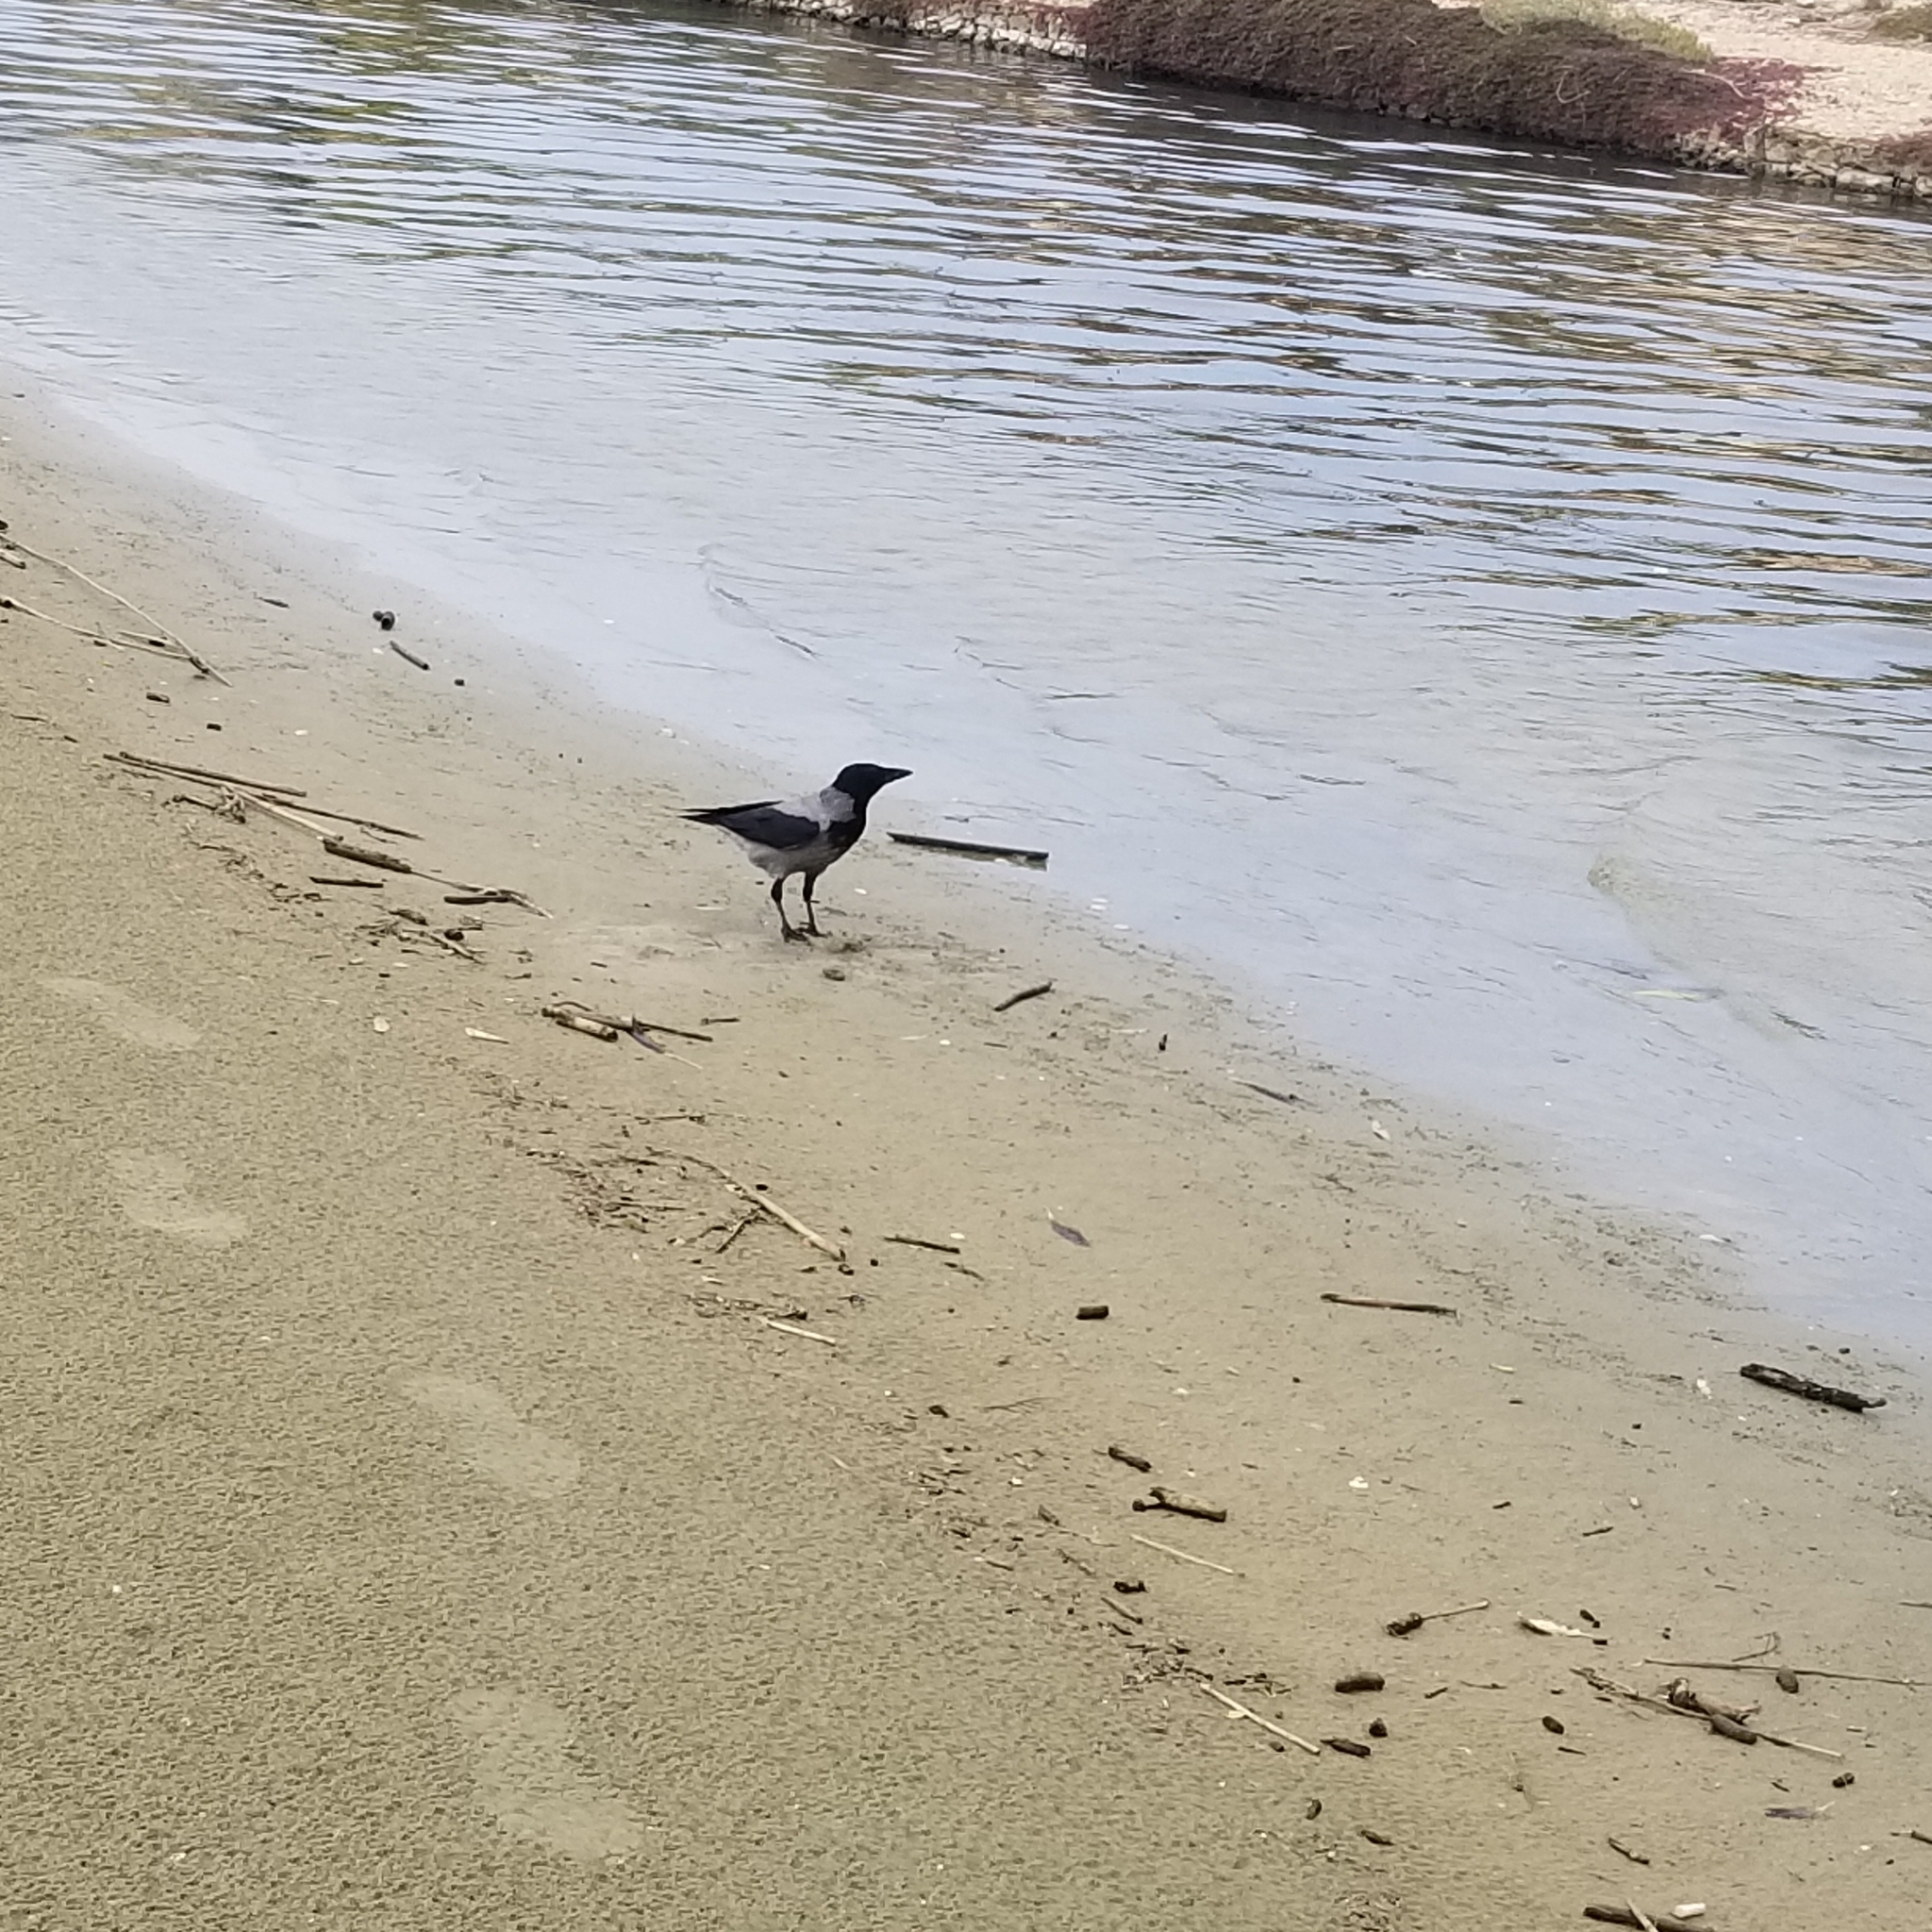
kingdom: Animalia
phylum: Chordata
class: Aves
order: Passeriformes
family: Corvidae
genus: Corvus
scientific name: Corvus cornix
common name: Hooded crow
